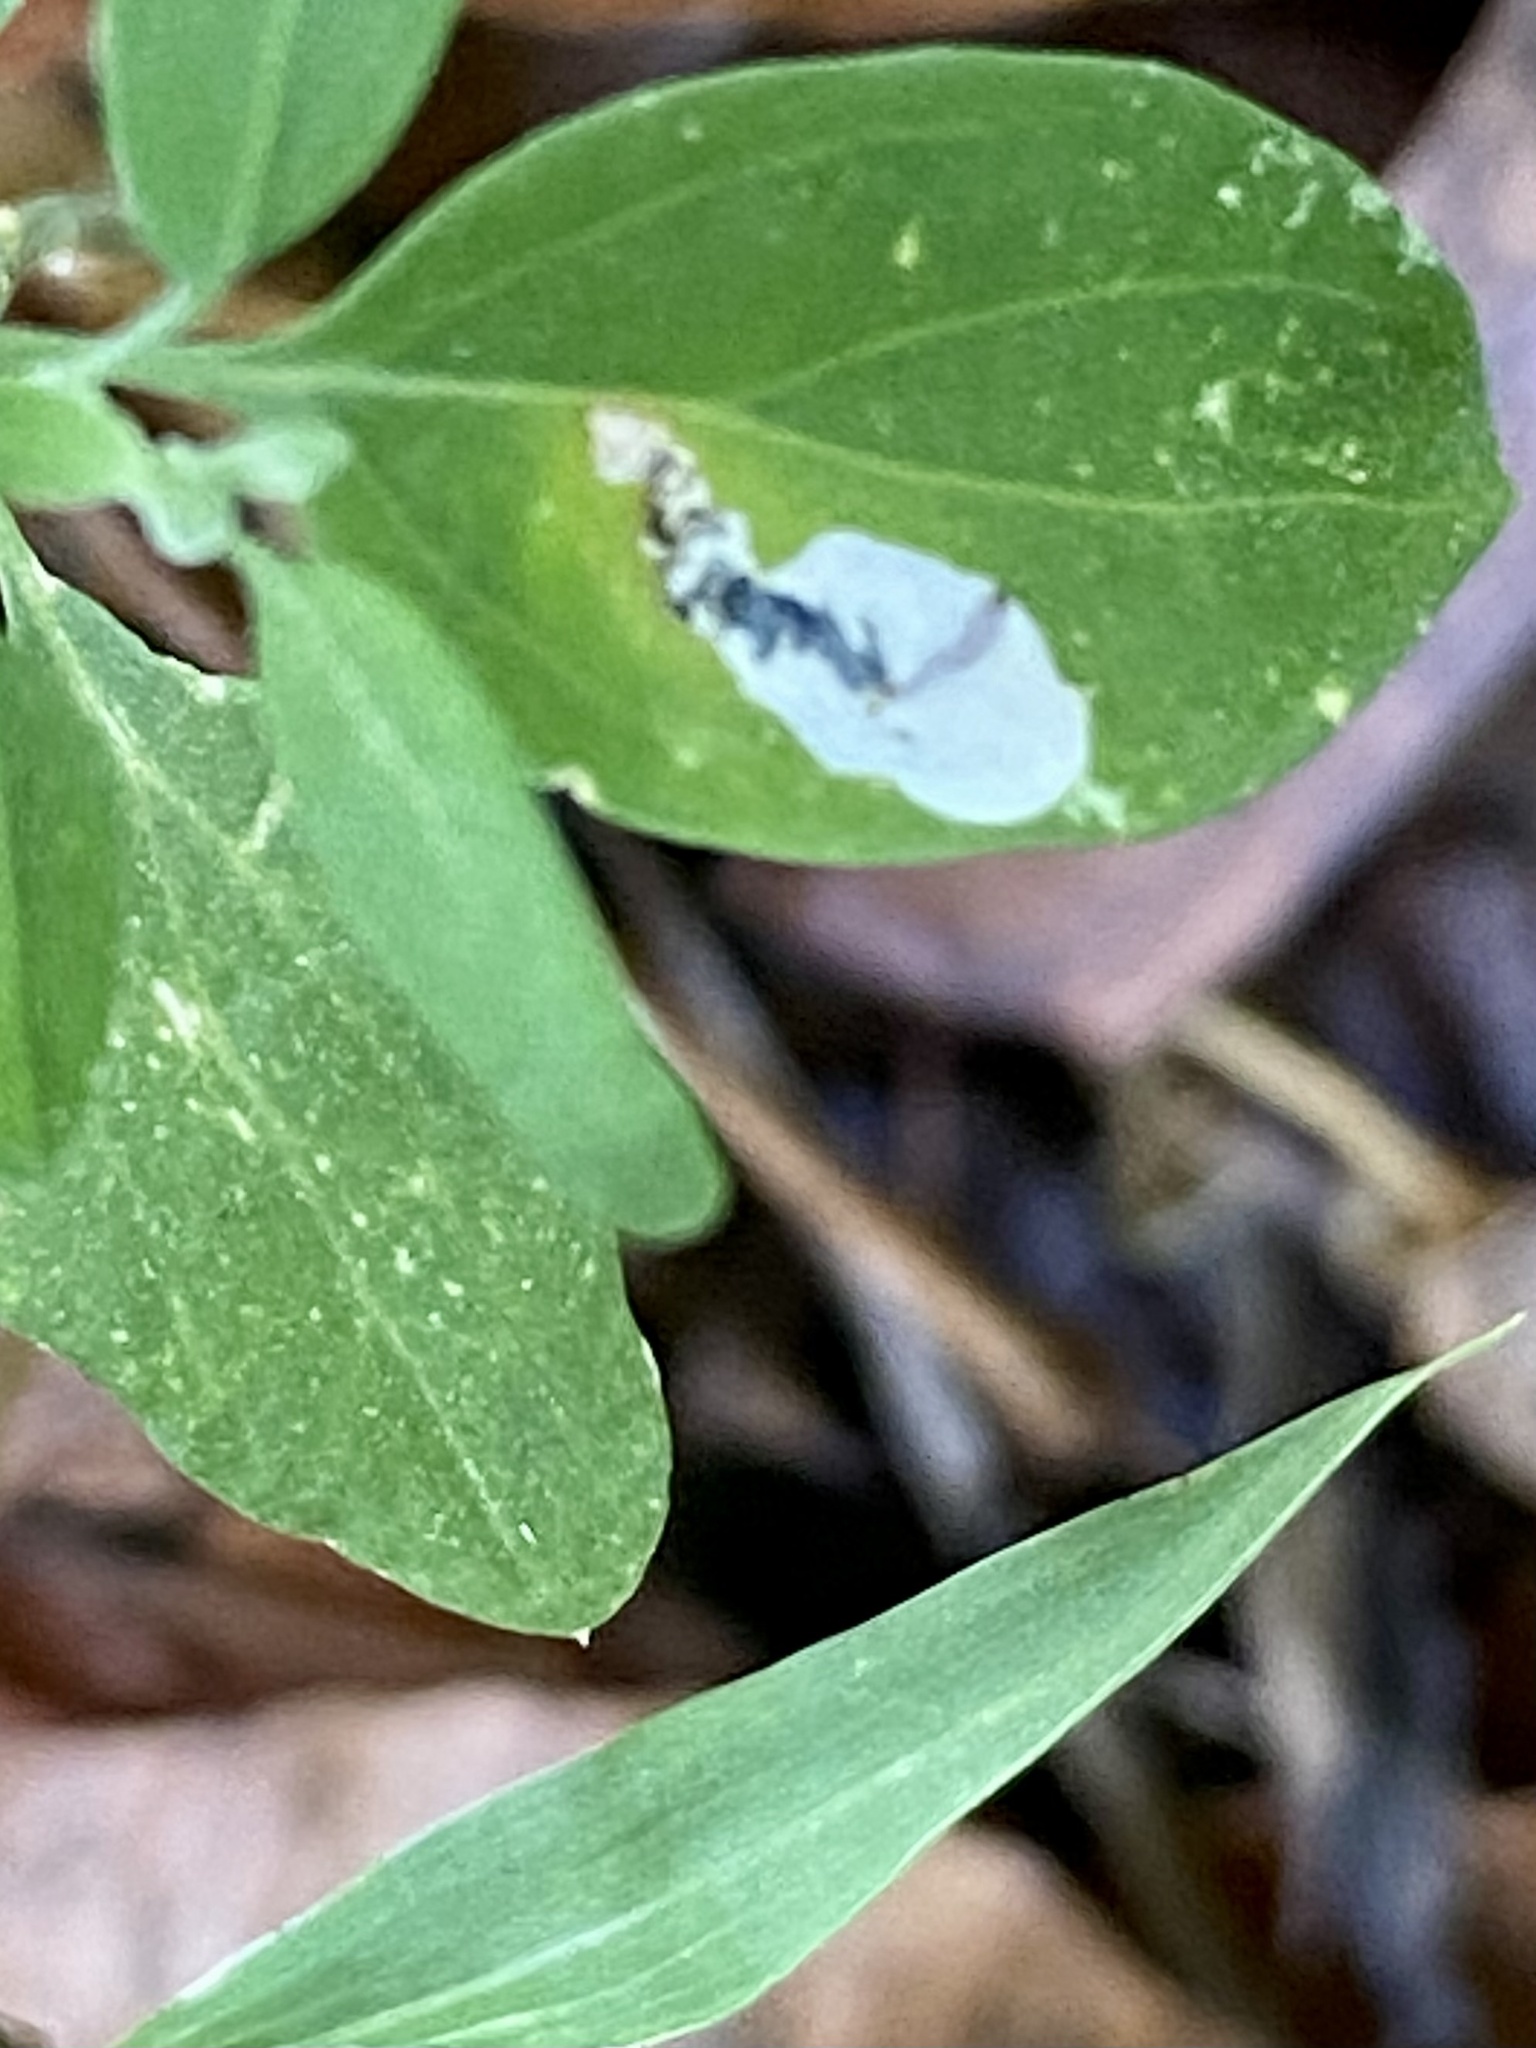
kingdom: Animalia
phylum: Arthropoda
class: Insecta
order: Lepidoptera
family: Gelechiidae
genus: Chrysoesthia
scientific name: Chrysoesthia sexguttella
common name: Moth
